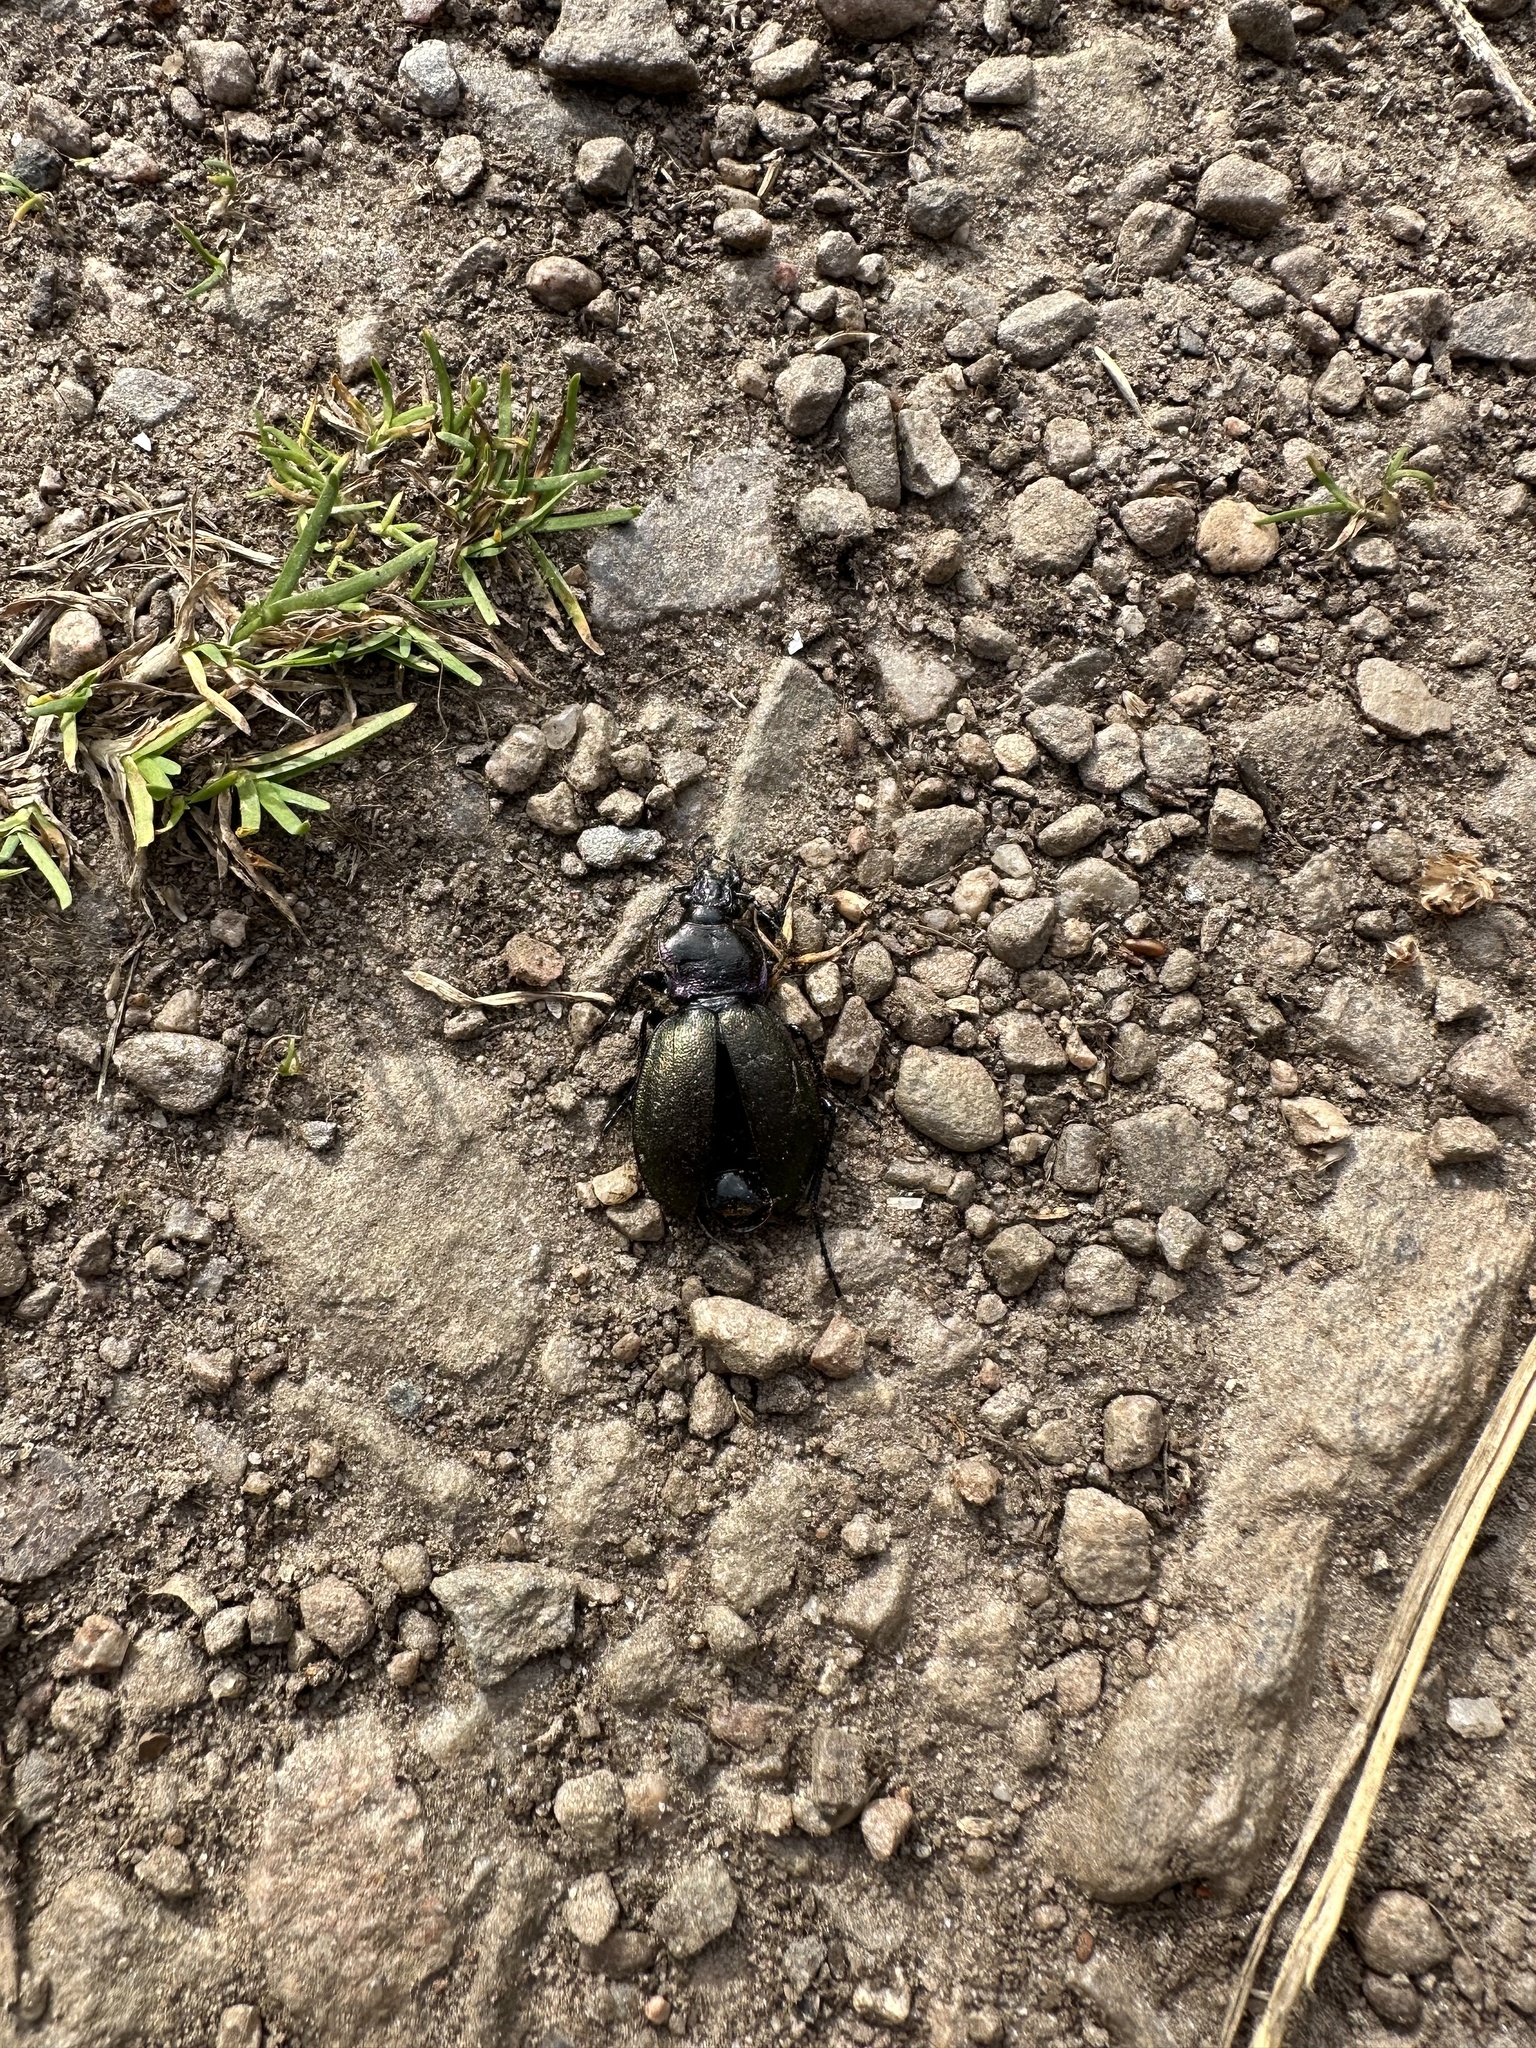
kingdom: Animalia
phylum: Arthropoda
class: Insecta
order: Coleoptera
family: Carabidae
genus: Carabus
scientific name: Carabus nemoralis
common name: European ground beetle
